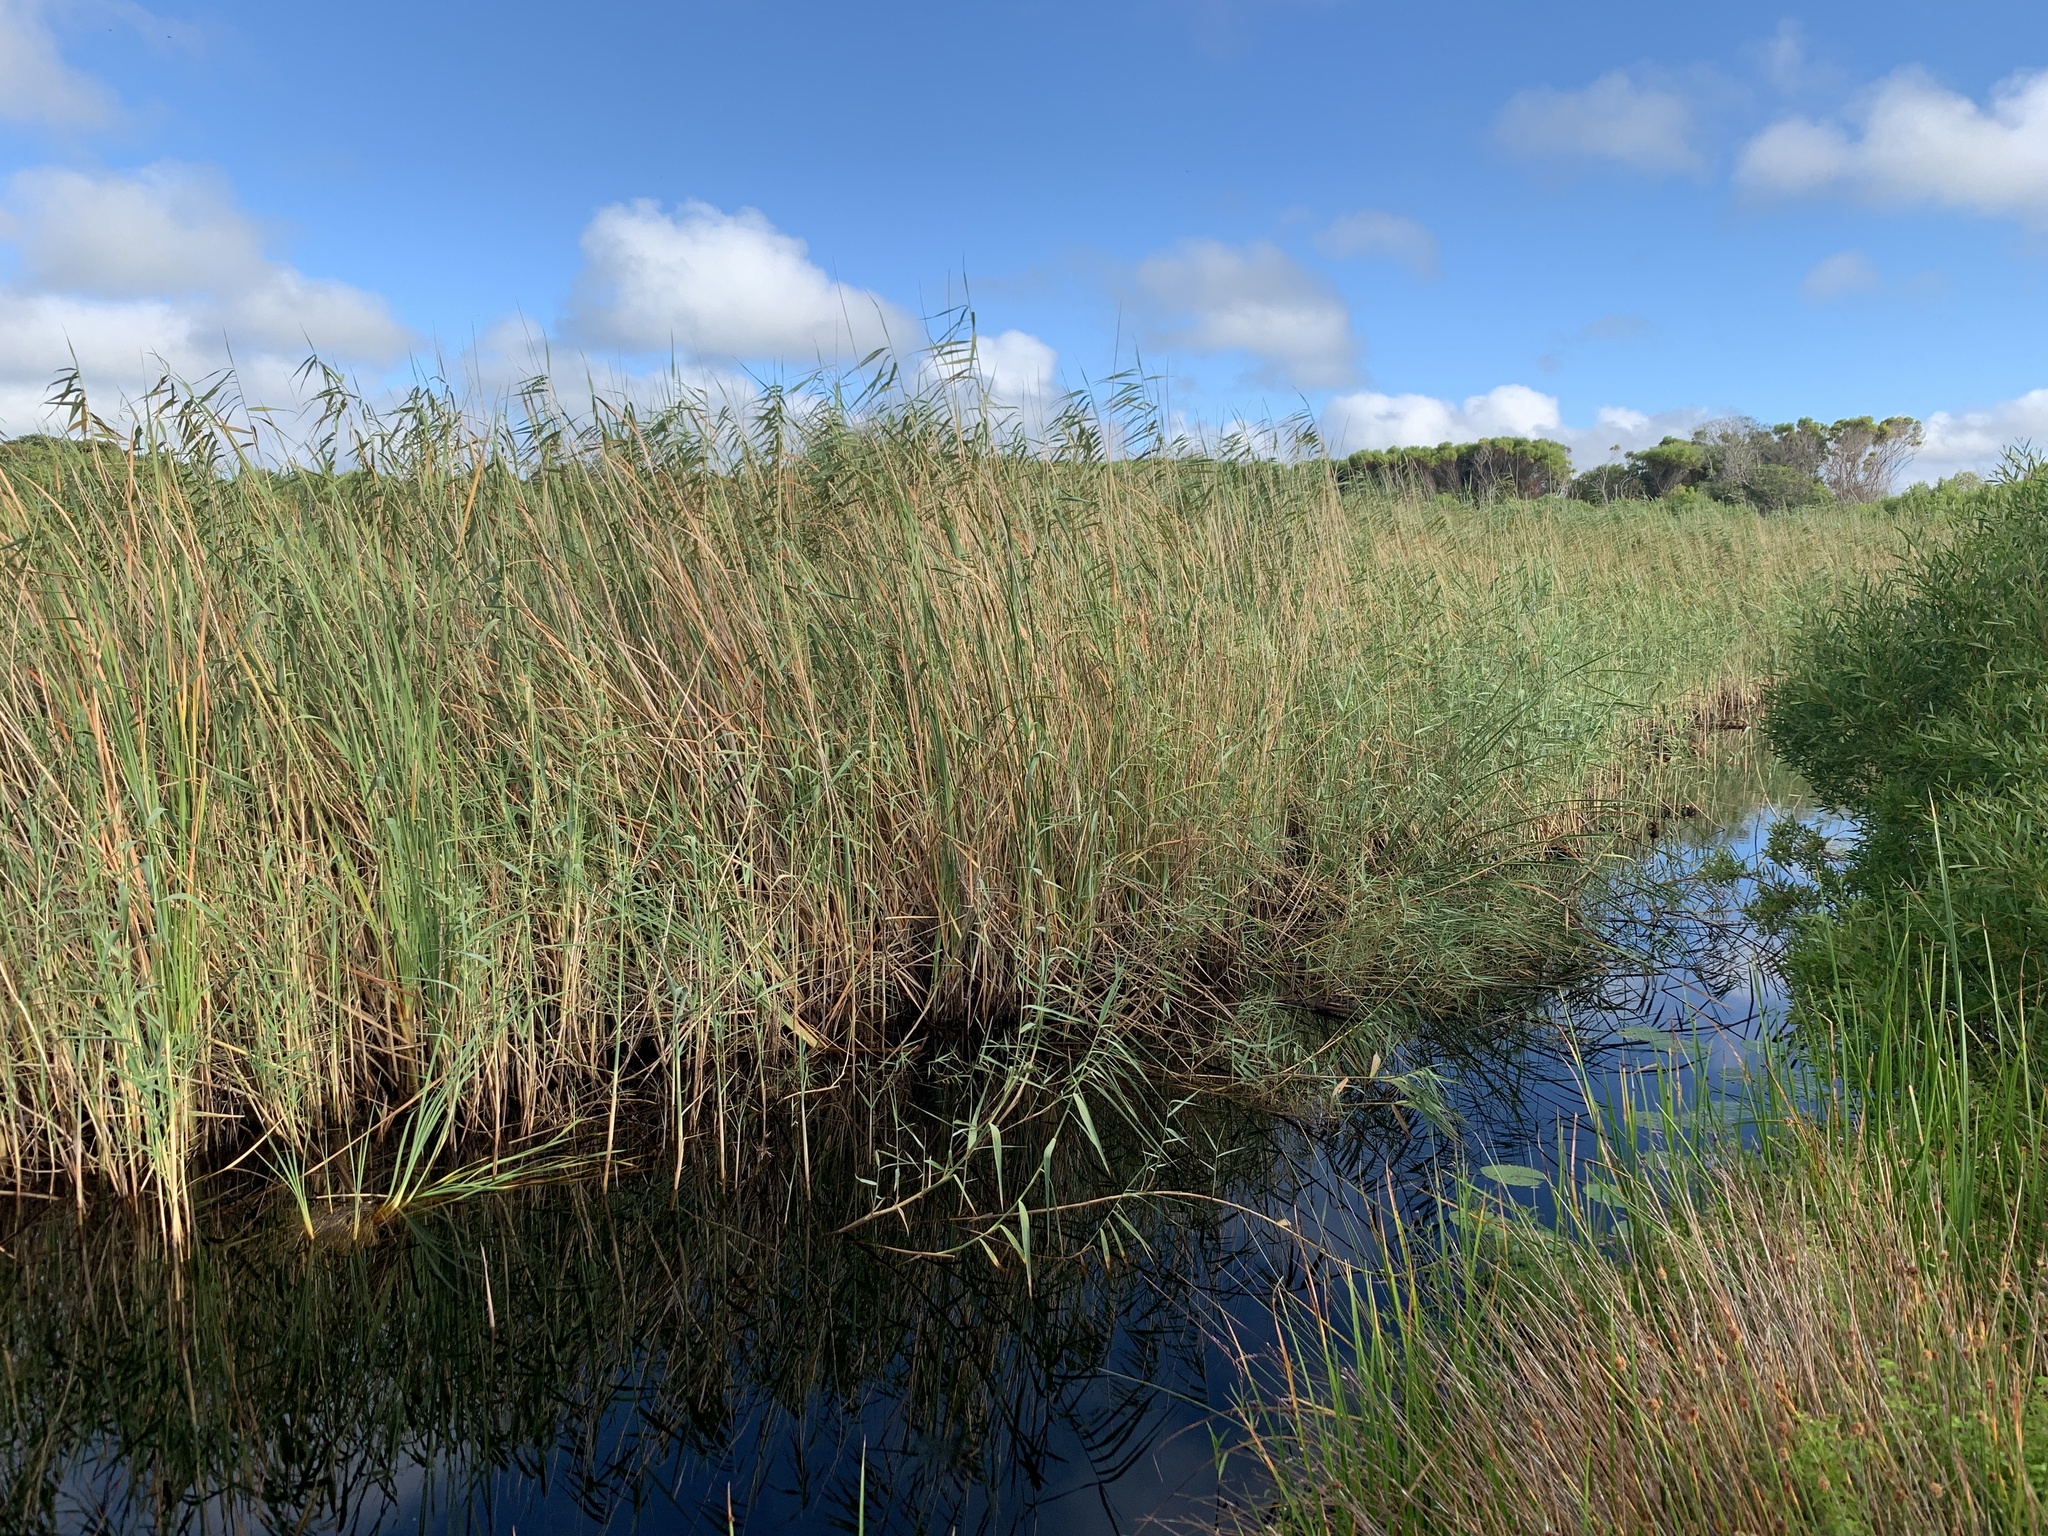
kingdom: Plantae
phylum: Tracheophyta
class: Liliopsida
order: Poales
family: Poaceae
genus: Phragmites
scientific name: Phragmites australis
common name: Common reed
